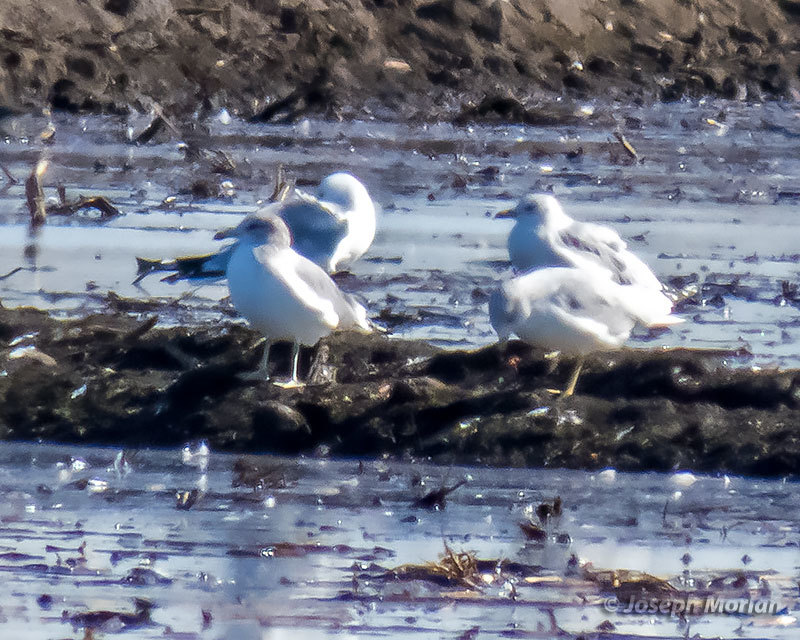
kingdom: Animalia
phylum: Chordata
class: Aves
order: Charadriiformes
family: Laridae
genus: Larus
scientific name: Larus delawarensis
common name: Ring-billed gull
